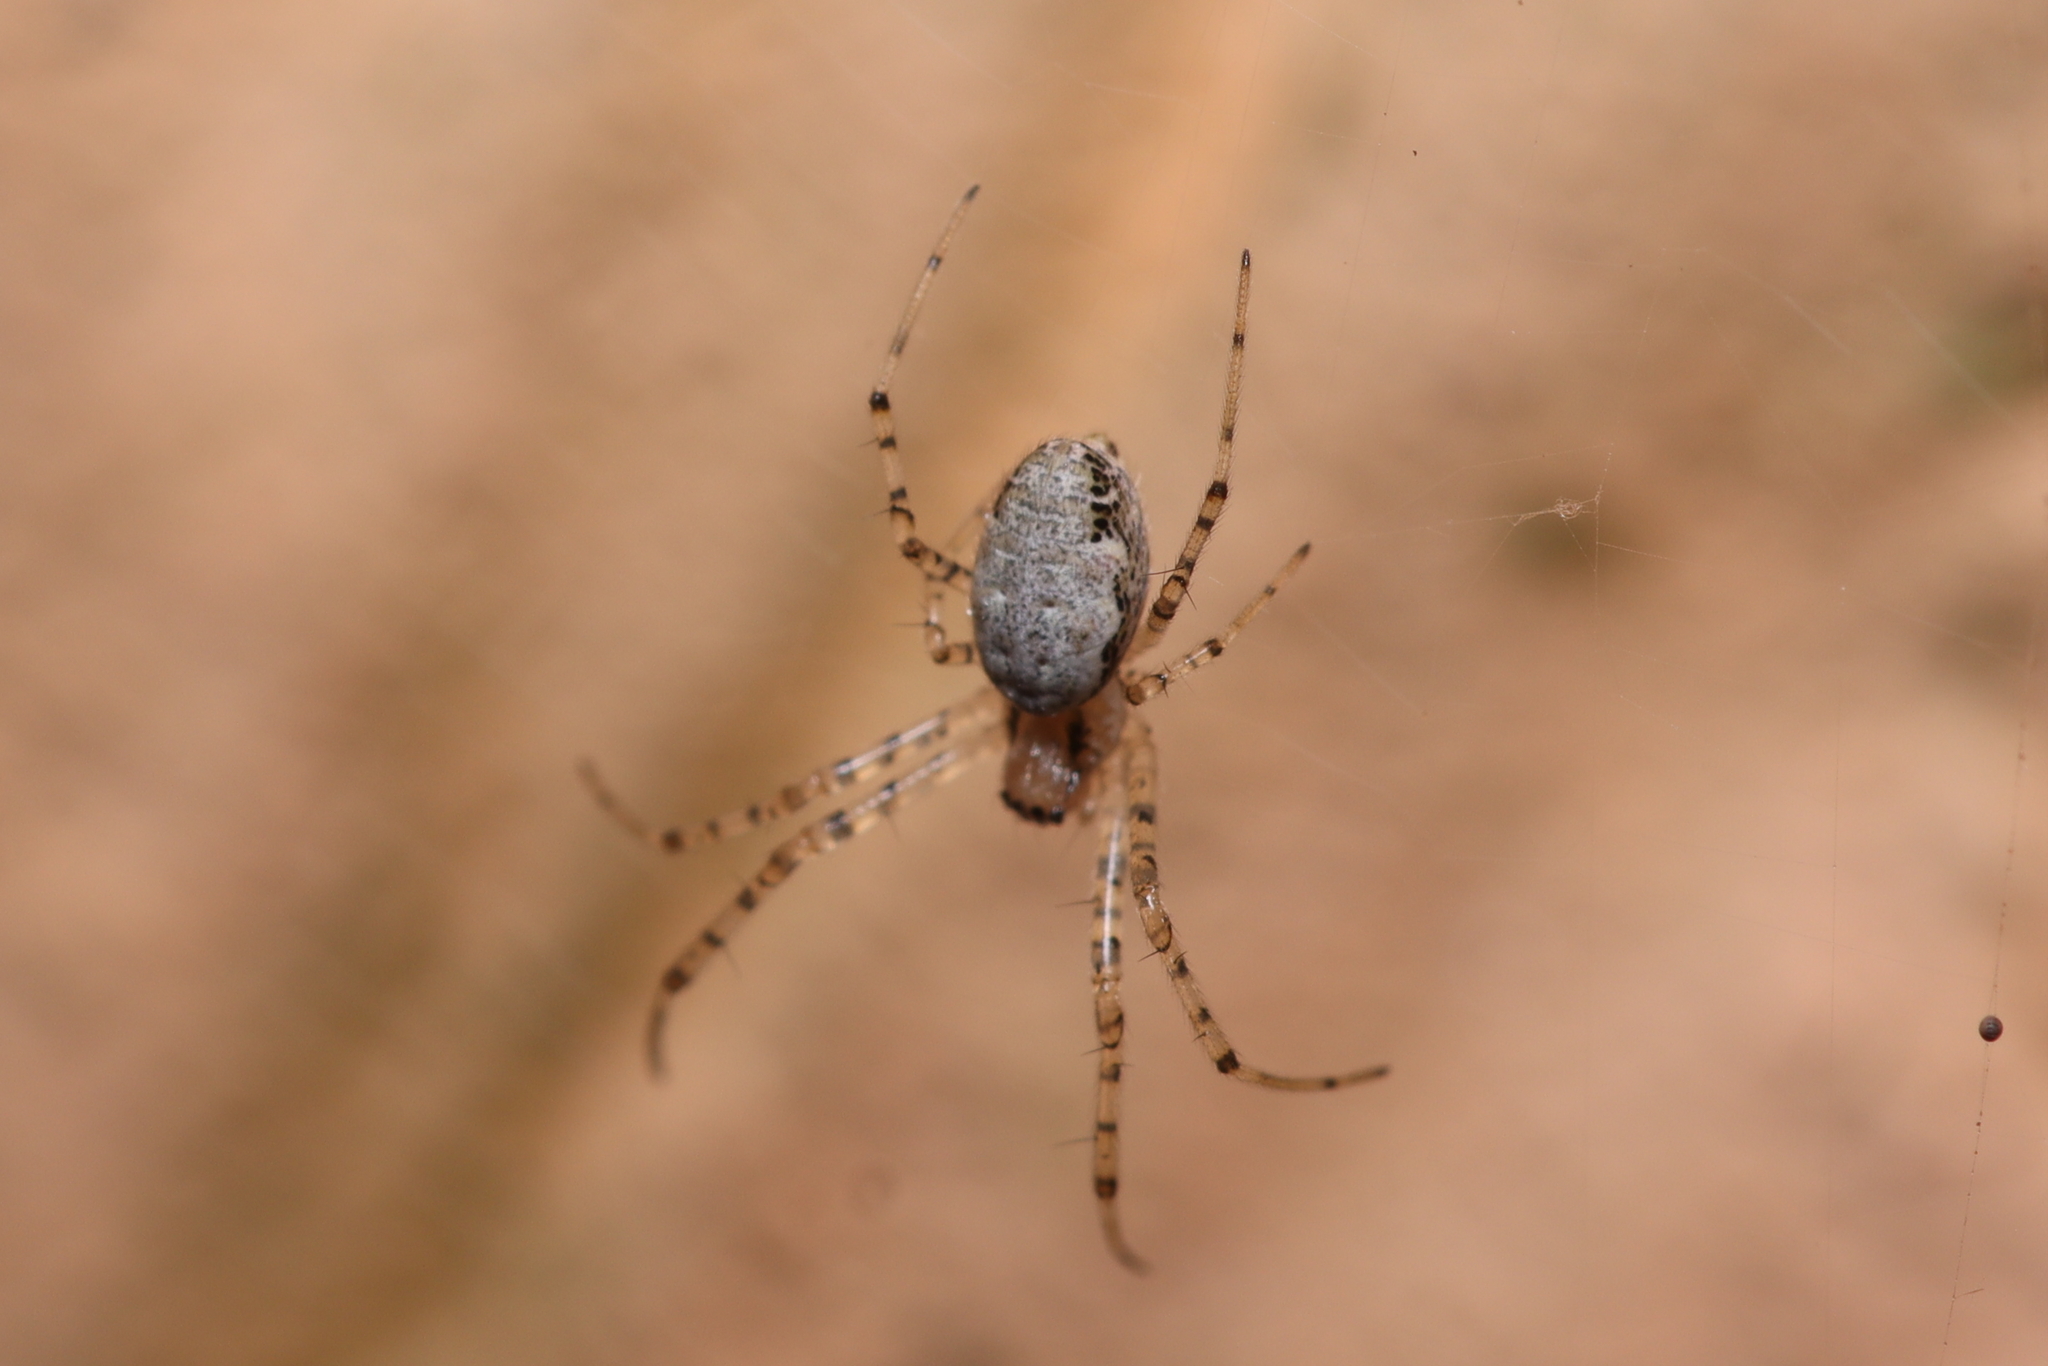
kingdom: Animalia
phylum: Arthropoda
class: Arachnida
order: Araneae
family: Araneidae
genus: Nephilingis
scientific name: Nephilingis cruentata
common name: African hermit spider
